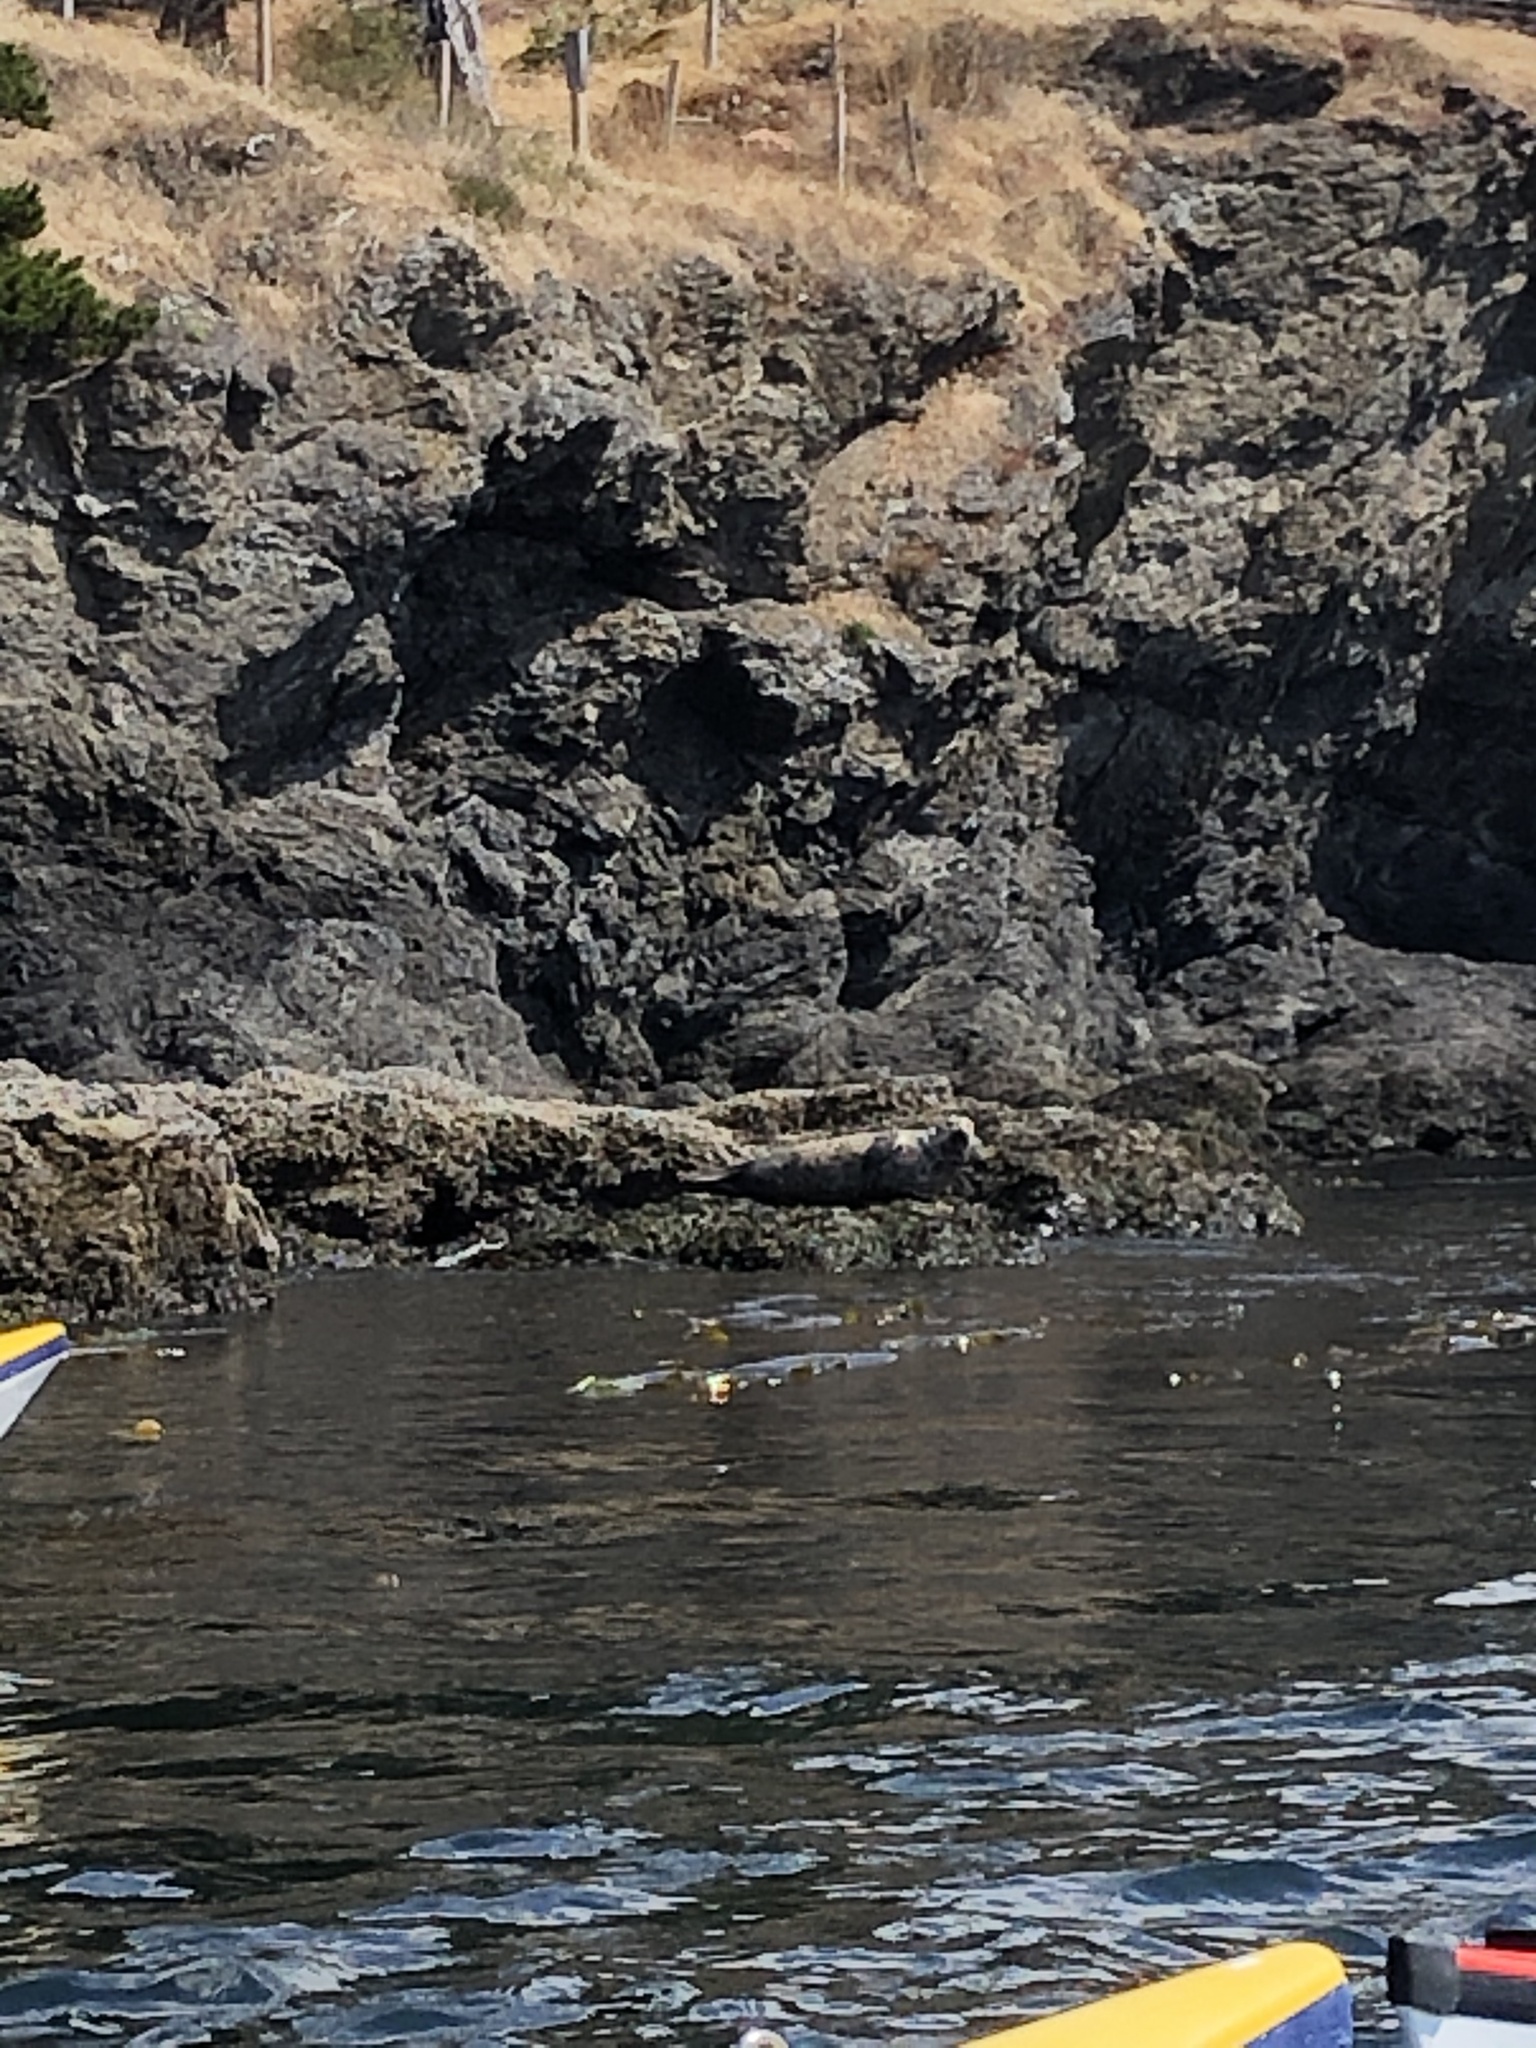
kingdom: Animalia
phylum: Chordata
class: Mammalia
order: Carnivora
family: Phocidae
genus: Phoca
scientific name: Phoca vitulina
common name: Harbor seal
